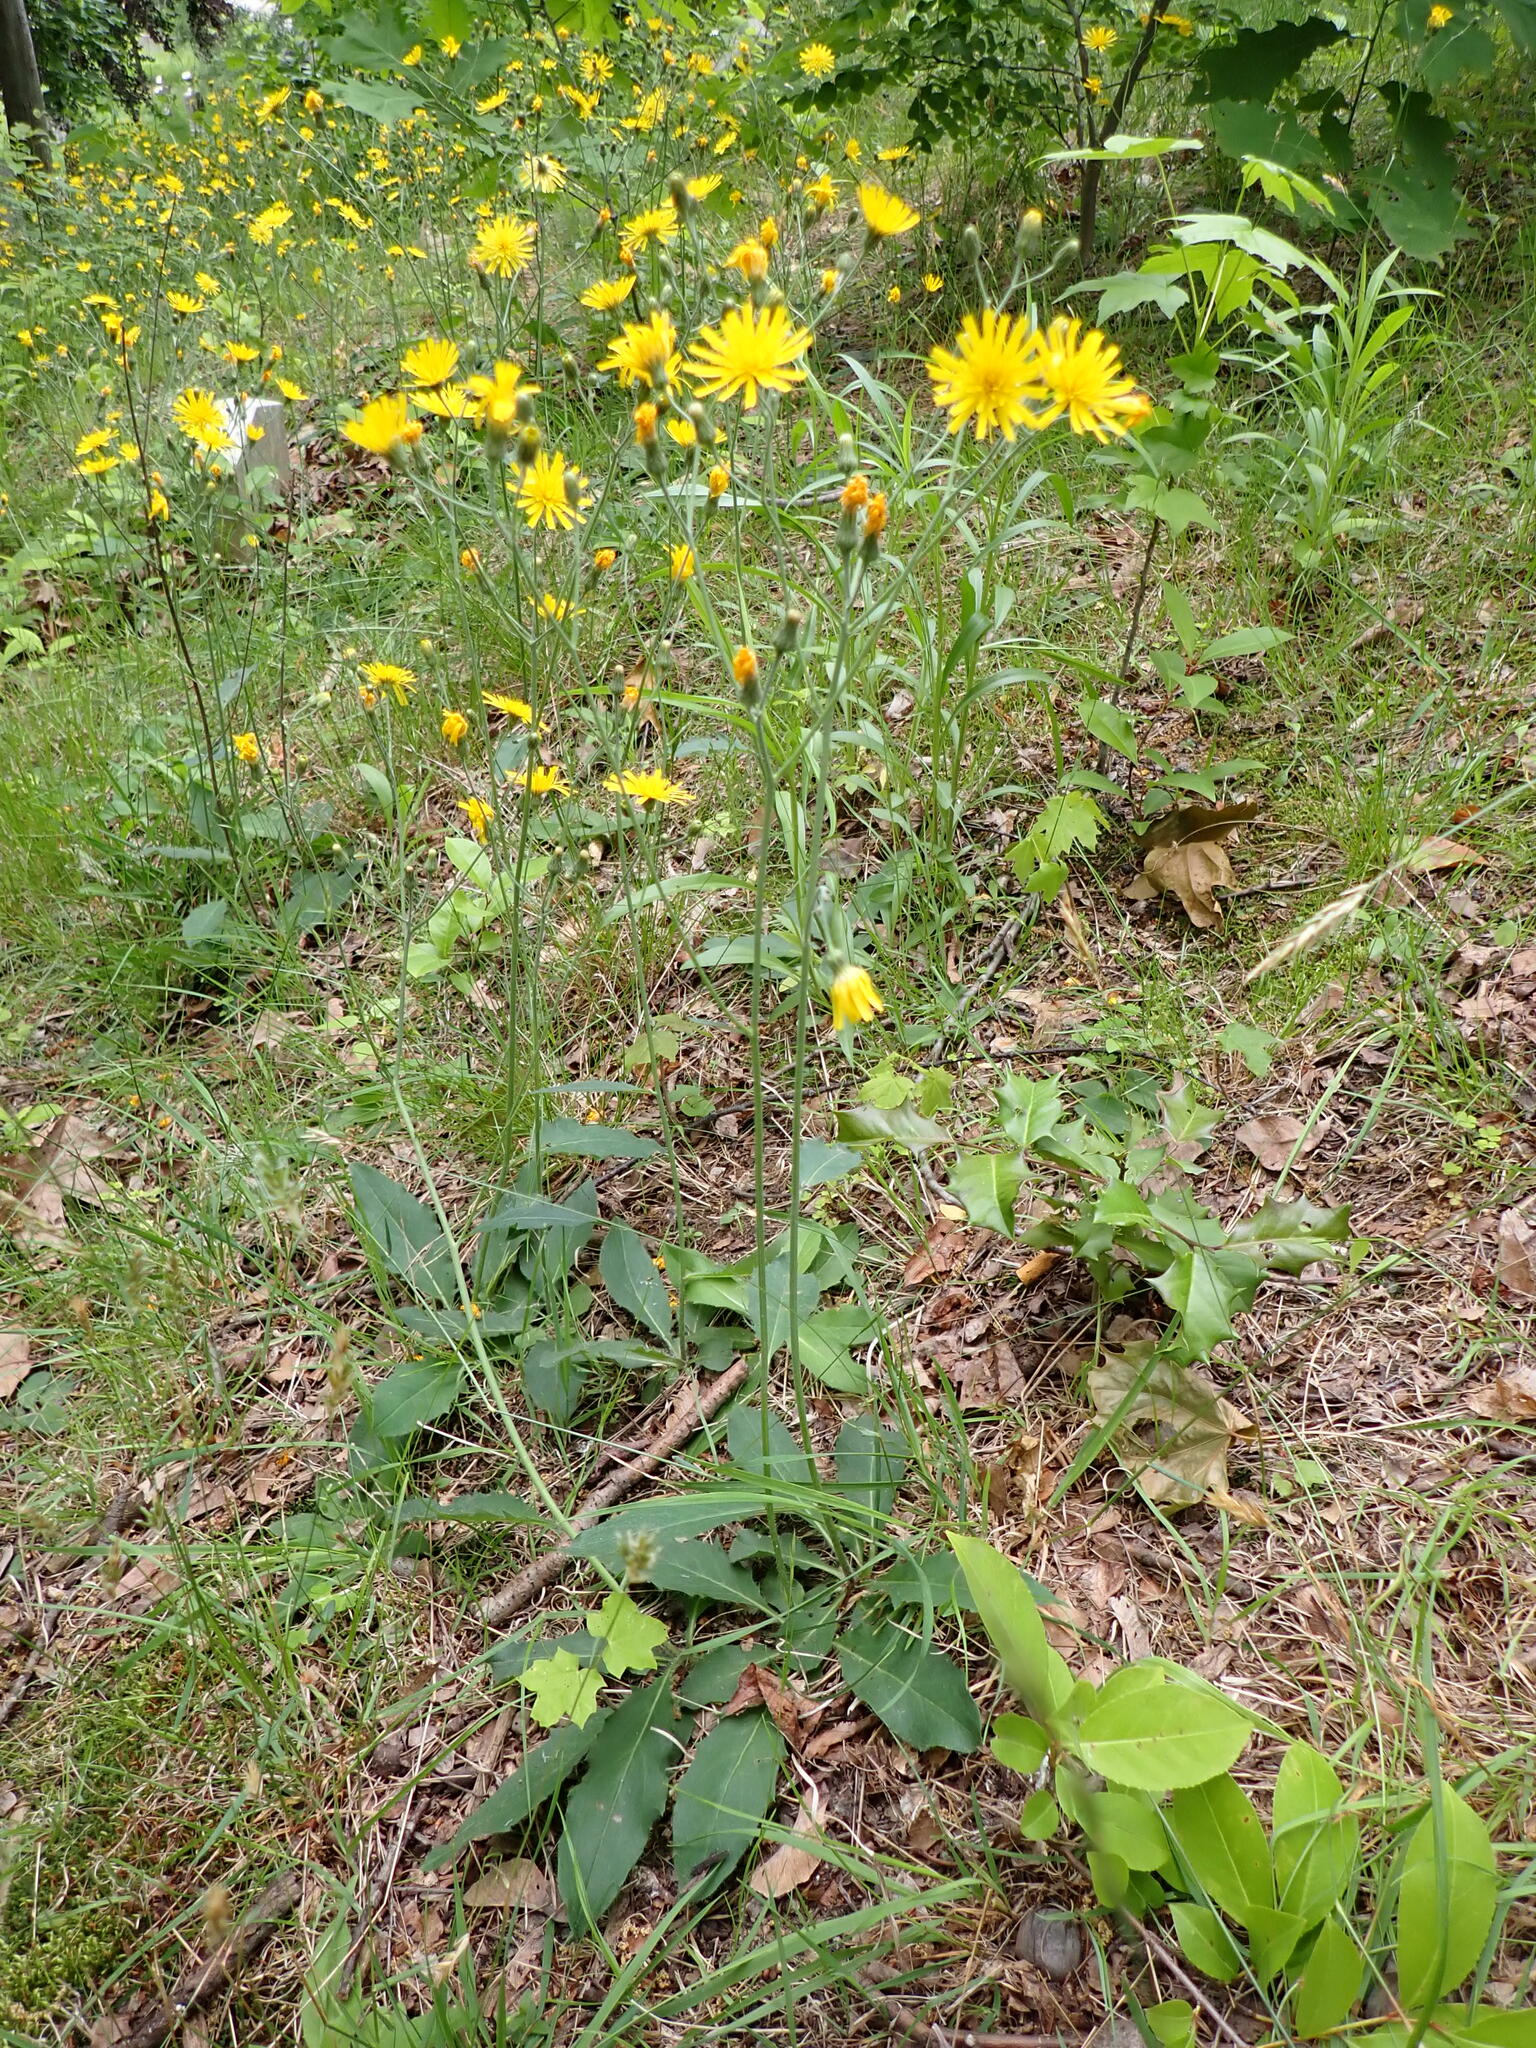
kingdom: Plantae
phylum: Tracheophyta
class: Magnoliopsida
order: Asterales
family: Asteraceae
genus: Hieracium
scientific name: Hieracium lachenalii
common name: Common hawkweed
